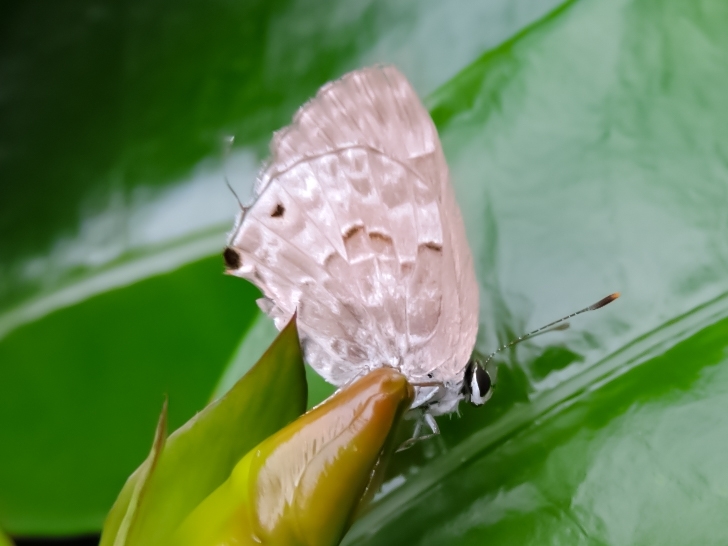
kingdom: Animalia
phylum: Arthropoda
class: Insecta
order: Lepidoptera
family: Lycaenidae
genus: Strymon
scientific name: Strymon mulucha
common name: Mottled scrub-hairstreak
